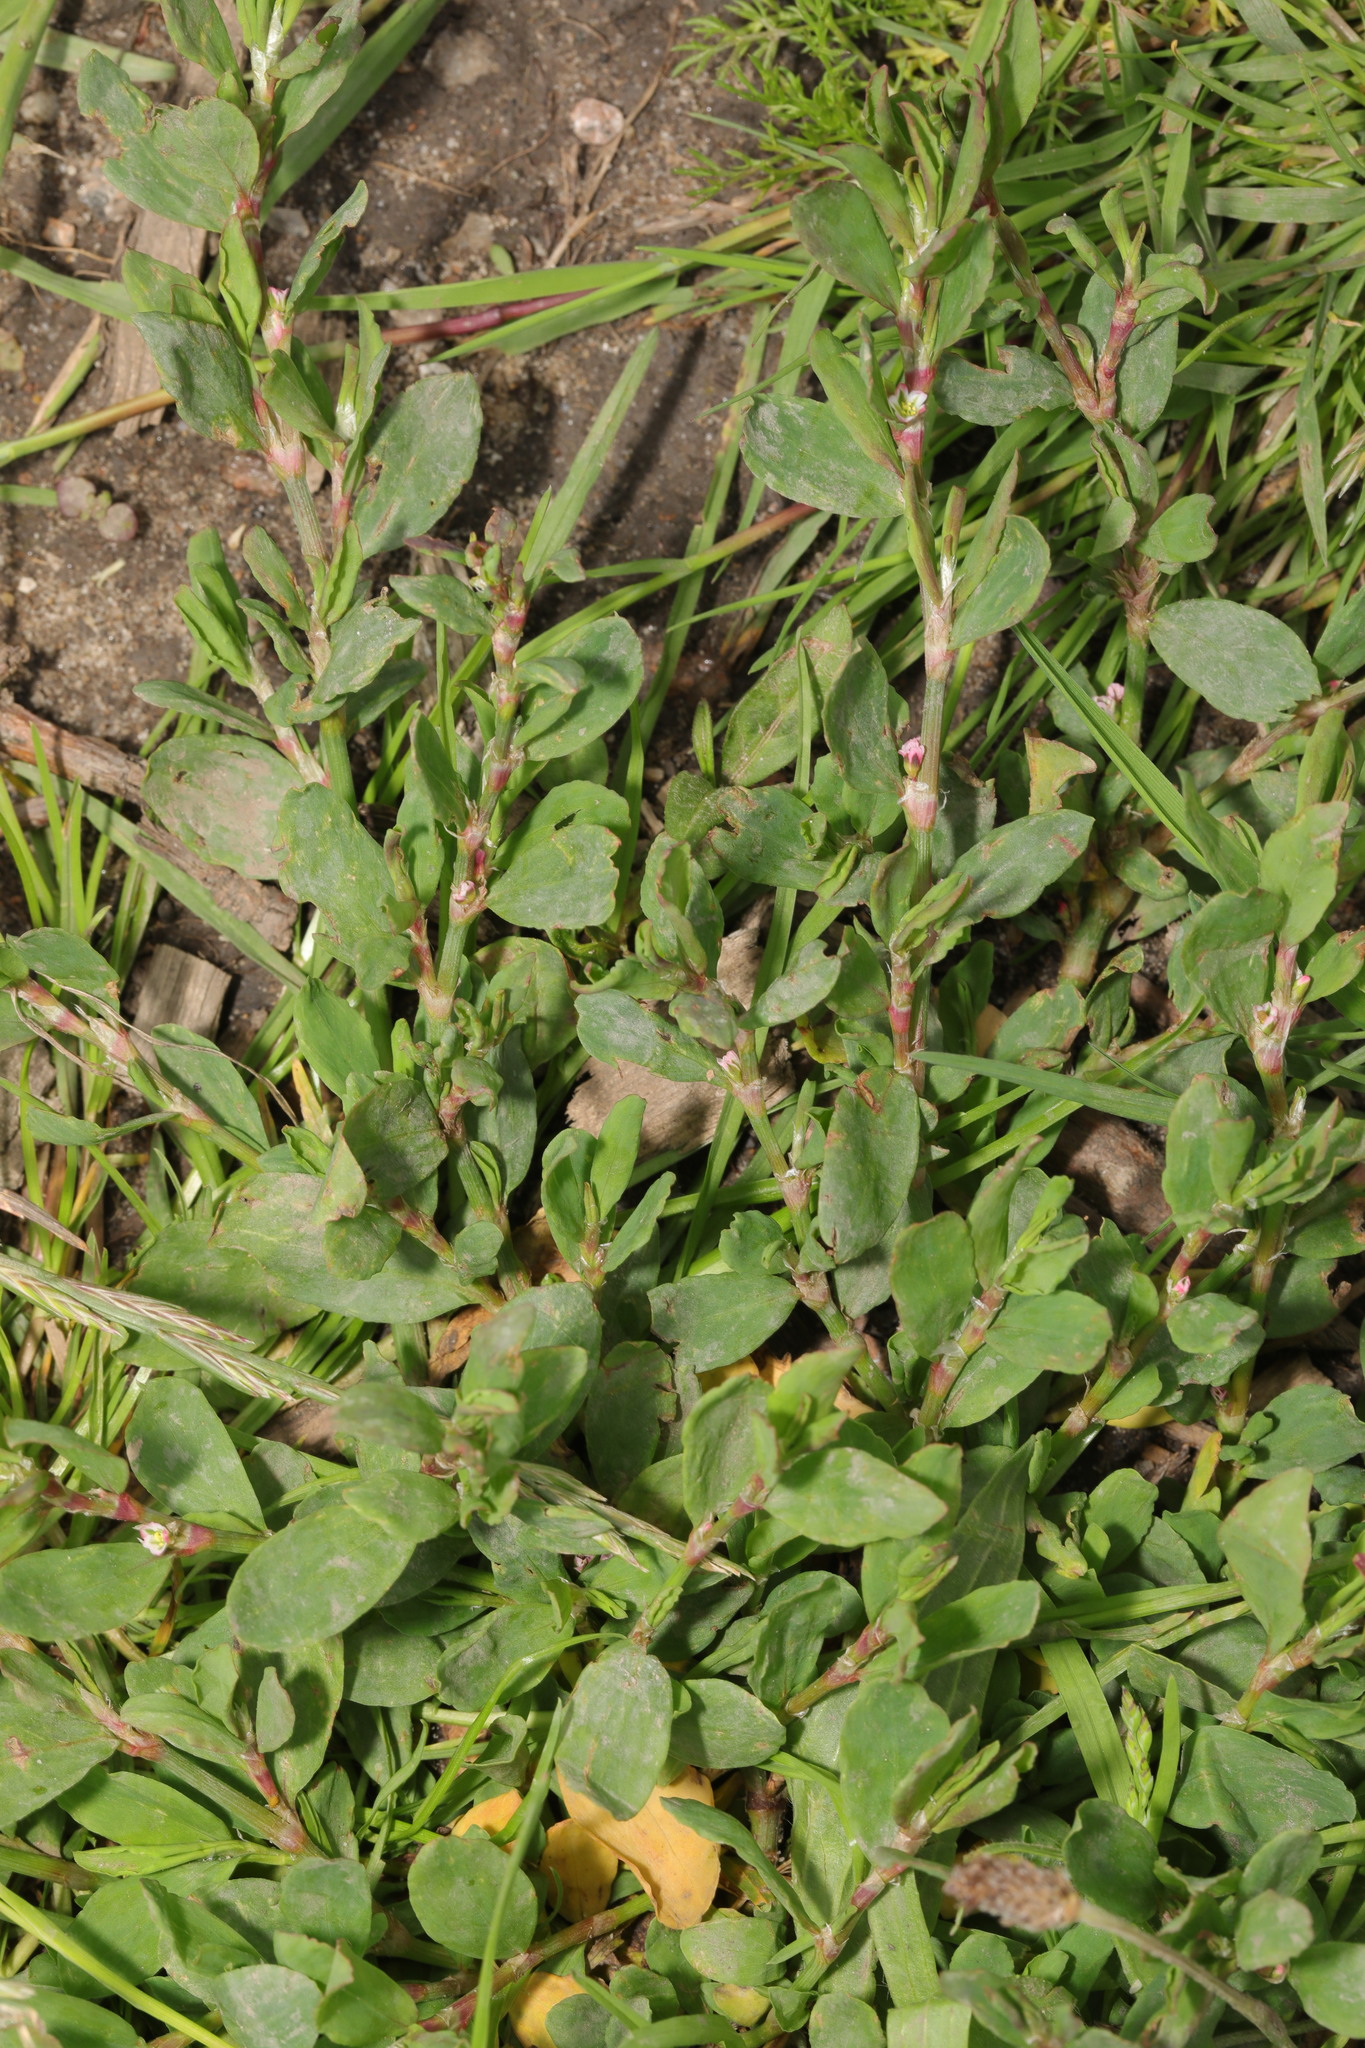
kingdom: Plantae
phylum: Tracheophyta
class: Magnoliopsida
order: Caryophyllales
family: Polygonaceae
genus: Polygonum
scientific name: Polygonum aviculare
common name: Prostrate knotweed
